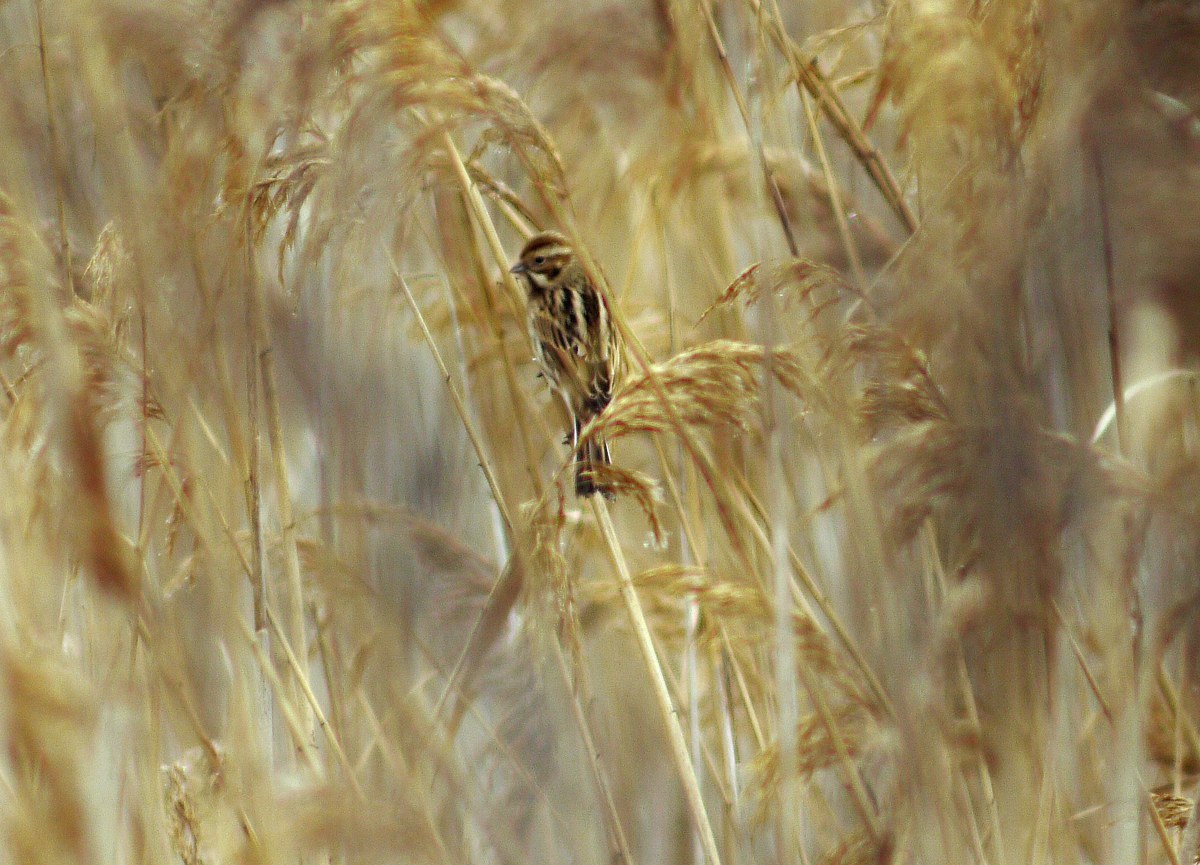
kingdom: Animalia
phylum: Chordata
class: Aves
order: Passeriformes
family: Emberizidae
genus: Emberiza
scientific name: Emberiza schoeniclus
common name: Reed bunting
